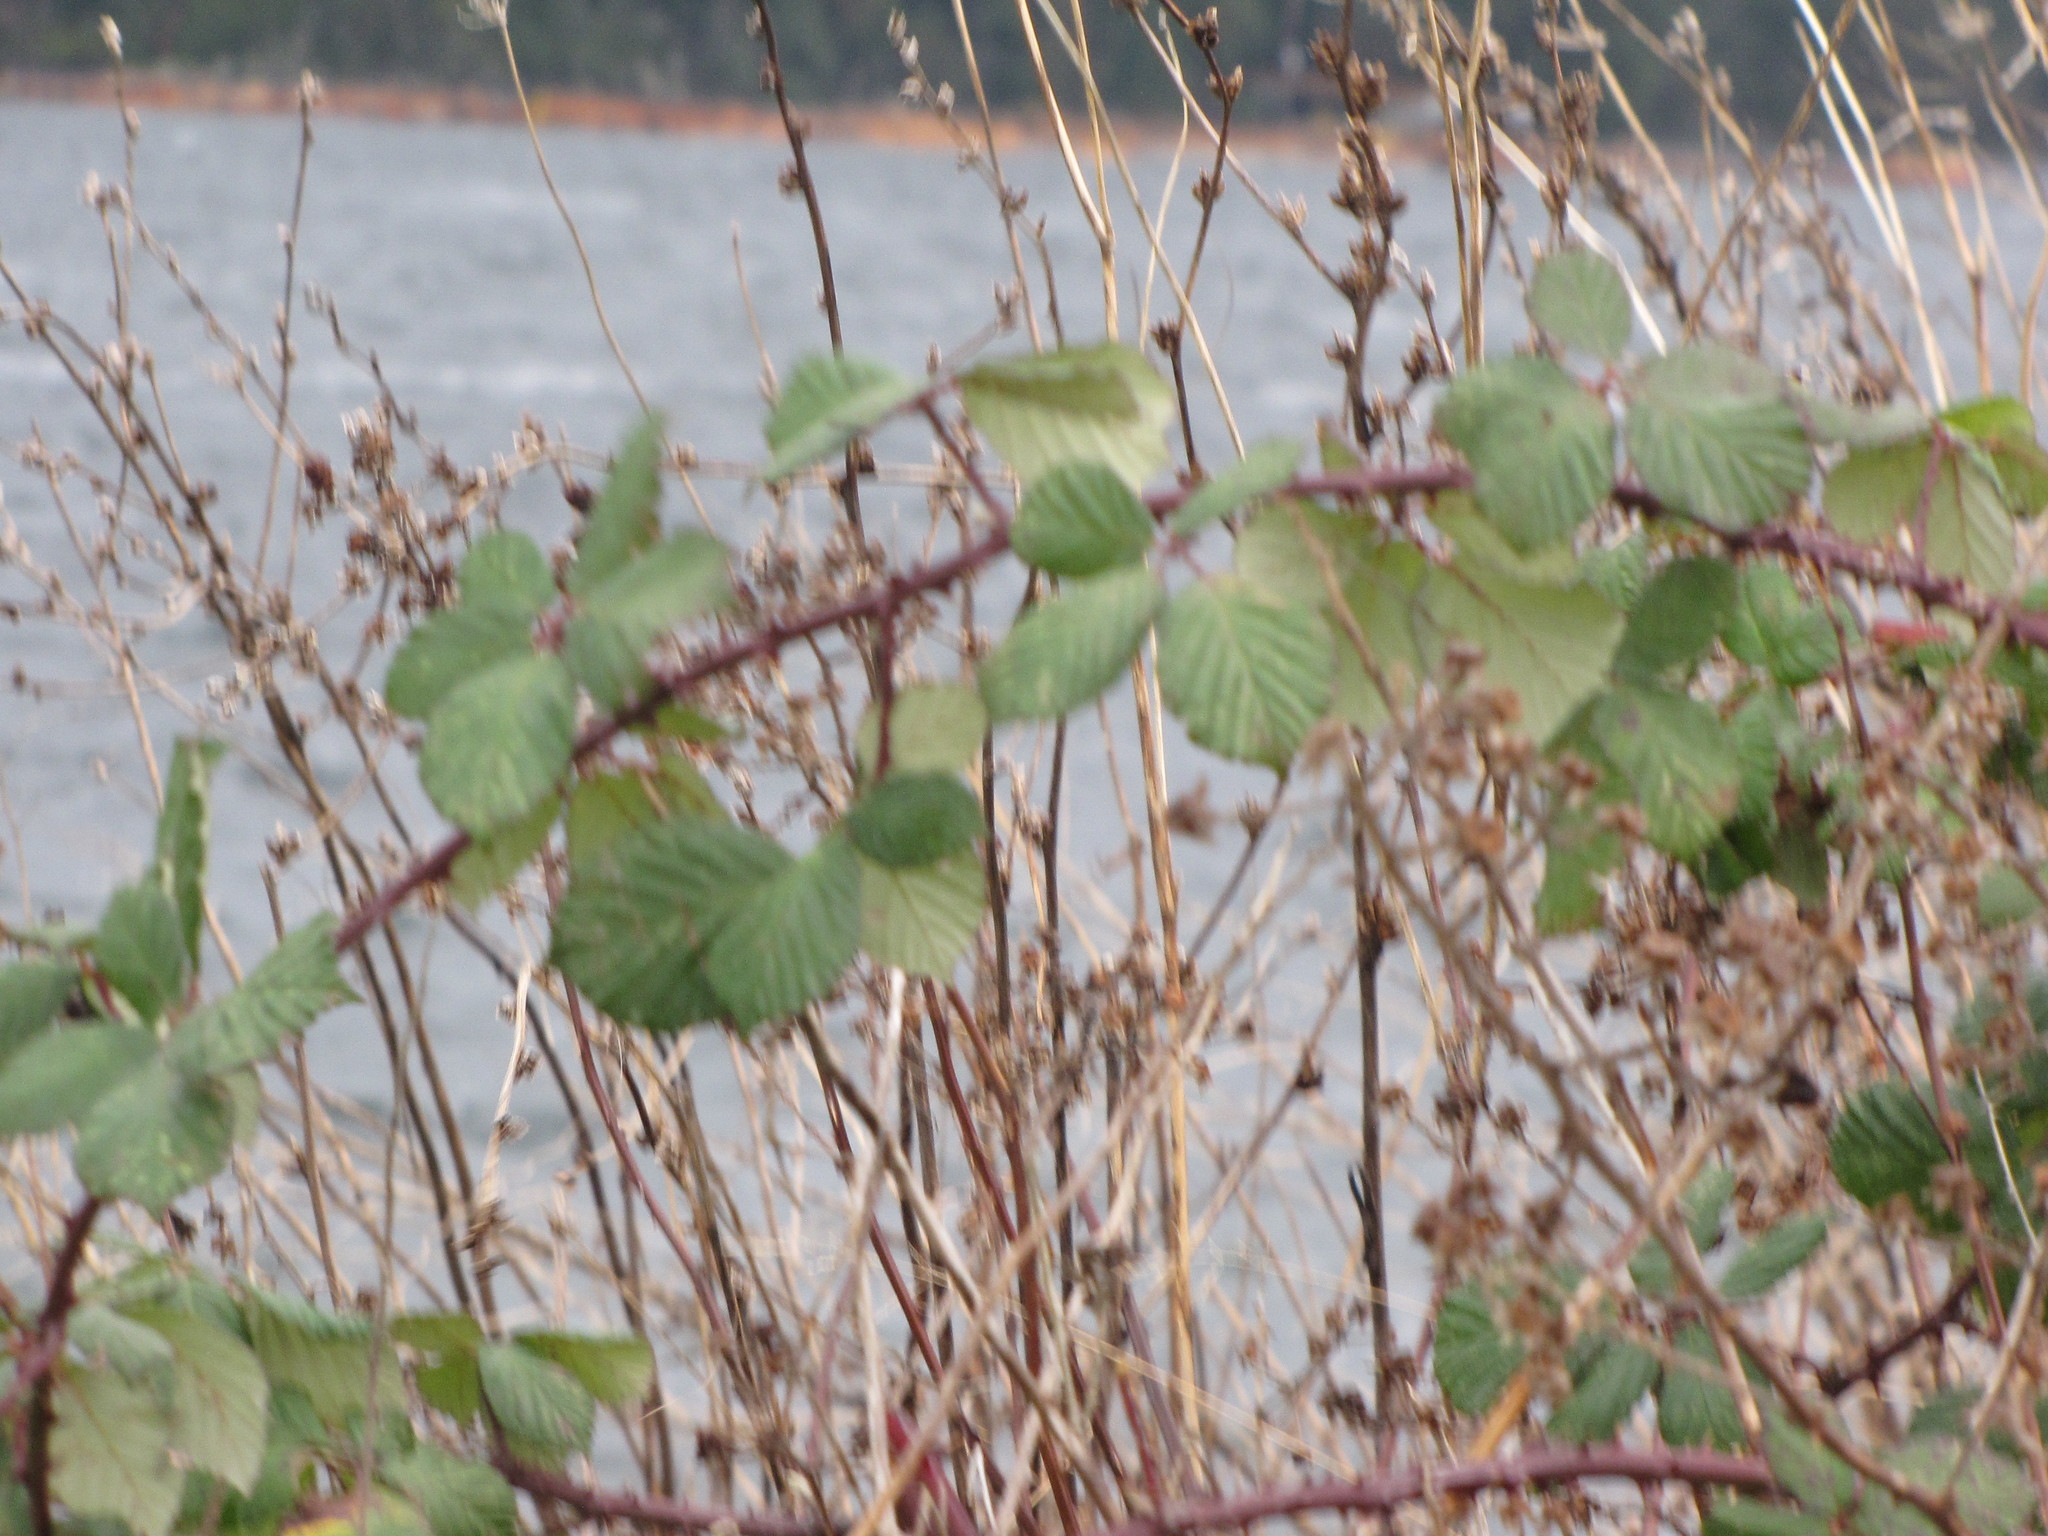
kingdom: Plantae
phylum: Tracheophyta
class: Magnoliopsida
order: Rosales
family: Rosaceae
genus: Rubus
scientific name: Rubus bifrons
